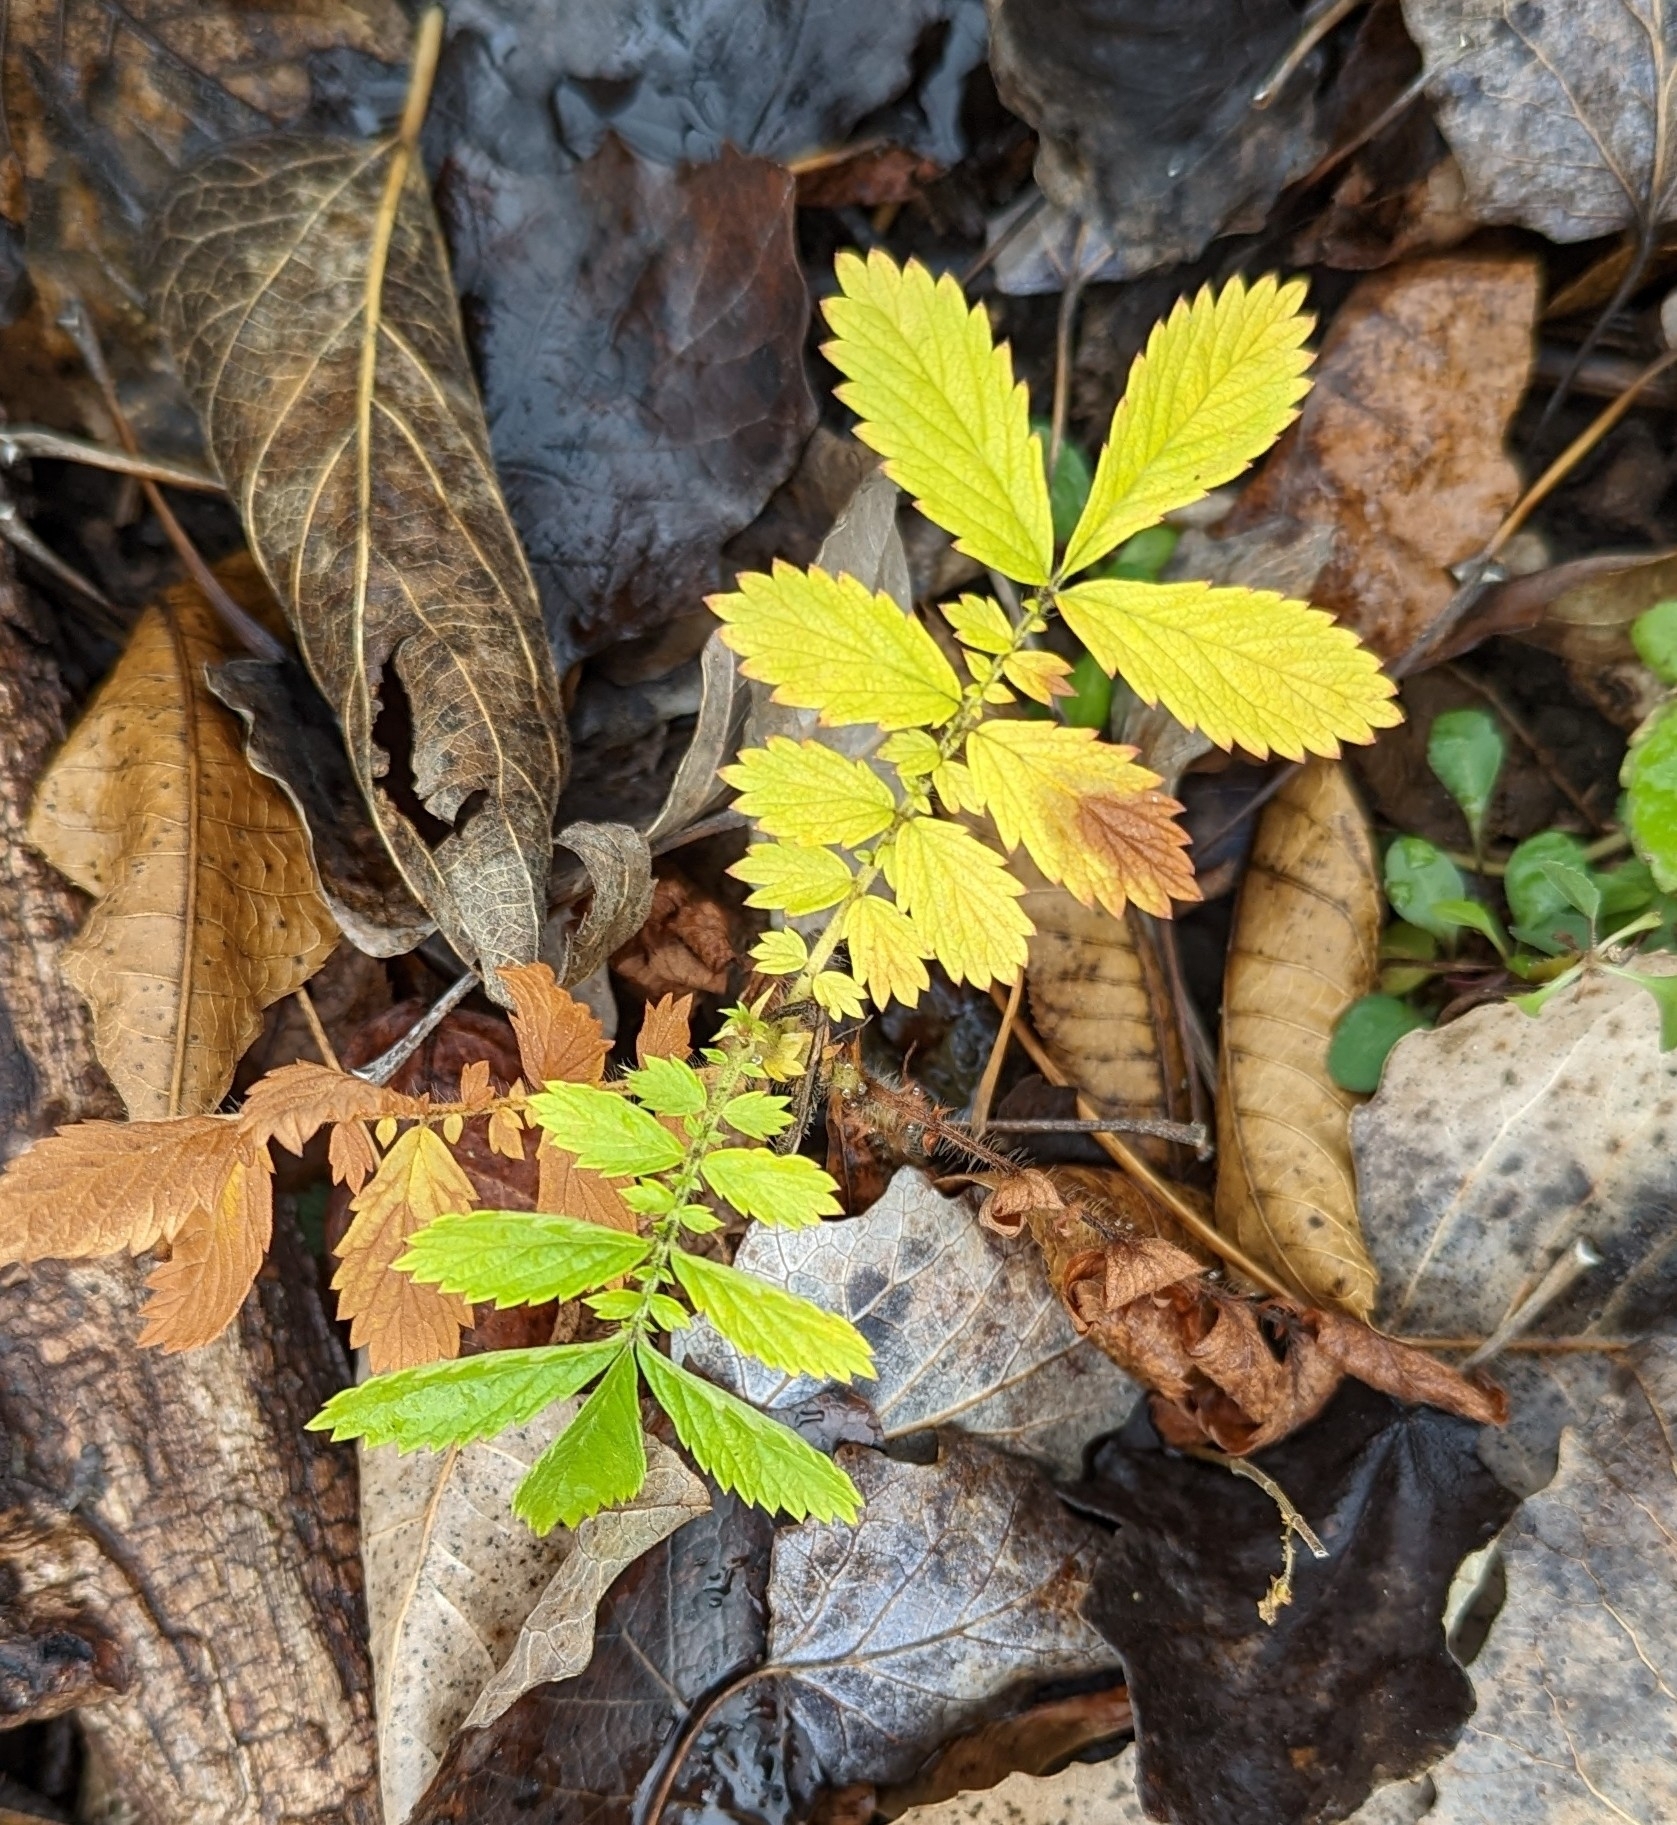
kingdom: Plantae
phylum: Tracheophyta
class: Magnoliopsida
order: Rosales
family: Rosaceae
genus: Agrimonia
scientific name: Agrimonia parviflora
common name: Harvest-lice
